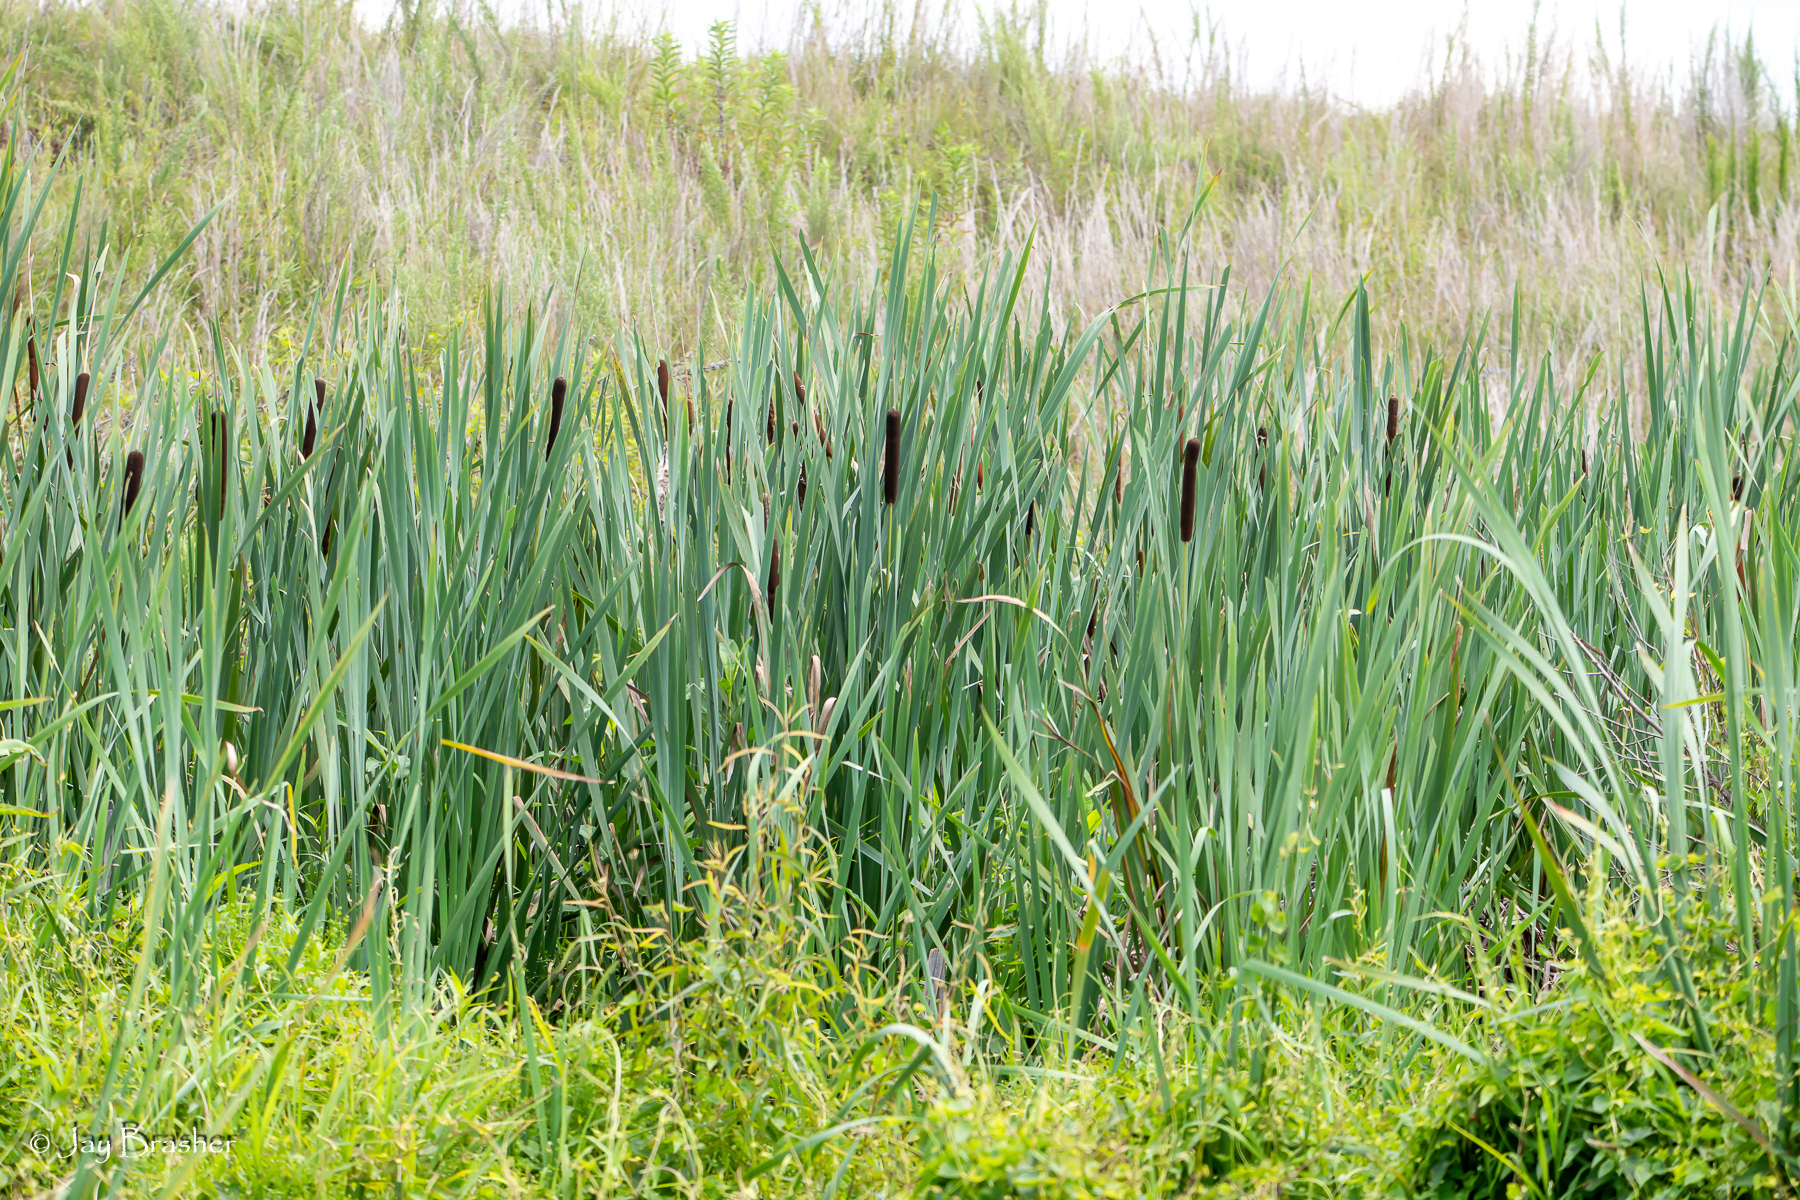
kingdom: Plantae
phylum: Tracheophyta
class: Liliopsida
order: Poales
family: Typhaceae
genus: Typha
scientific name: Typha latifolia
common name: Broadleaf cattail
